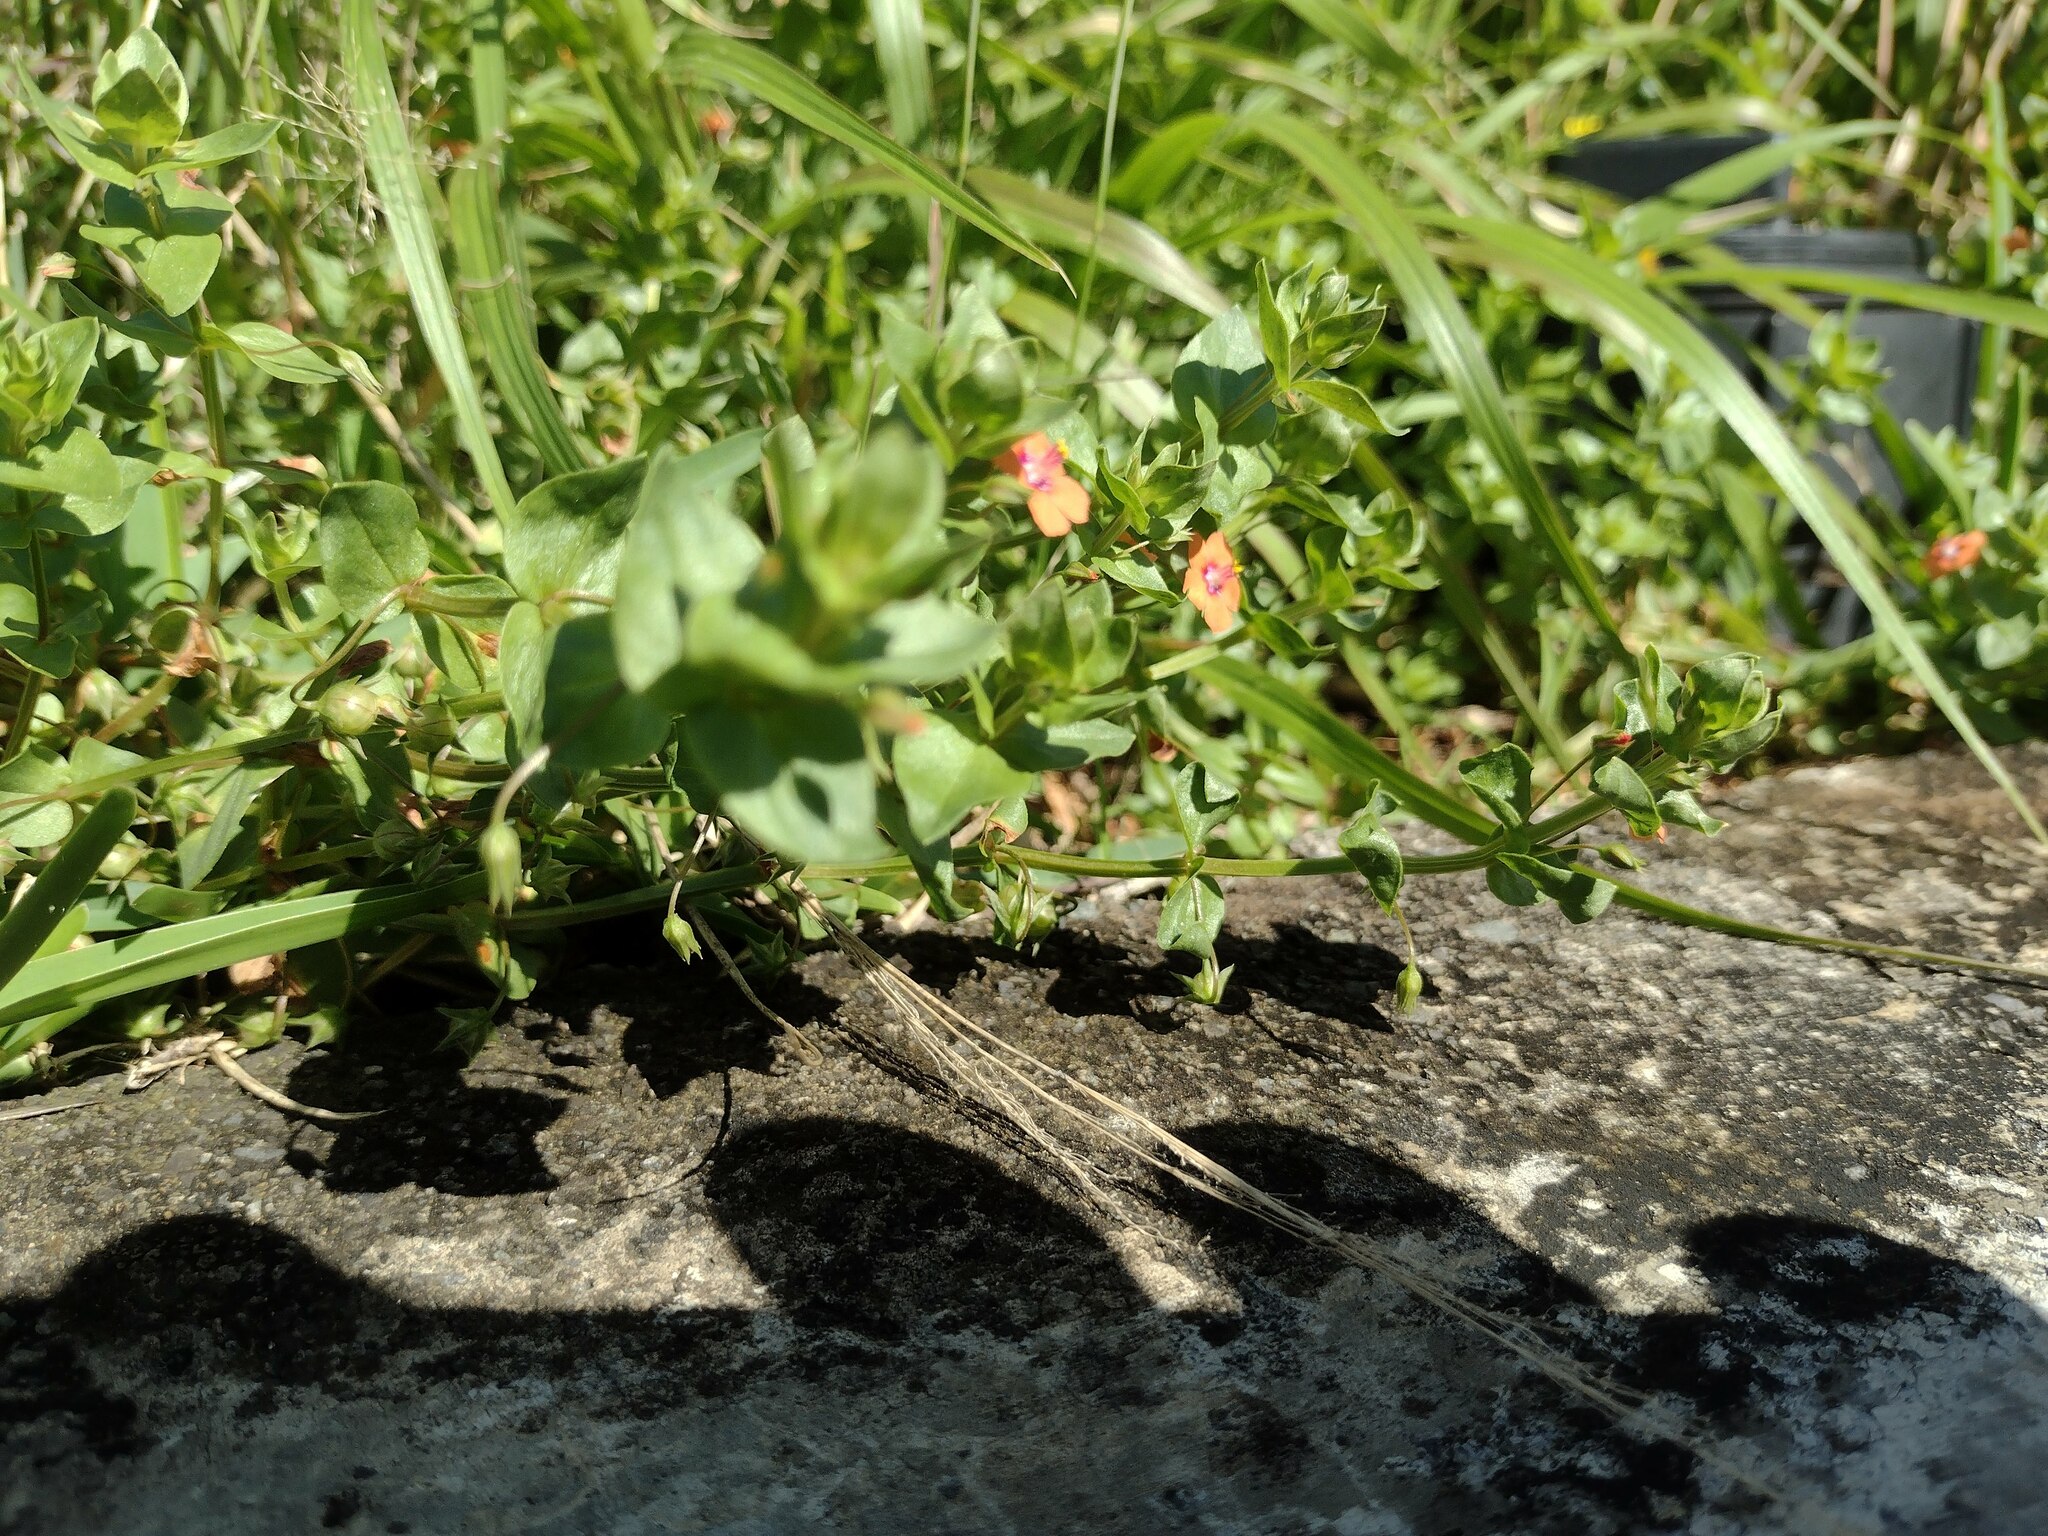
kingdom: Plantae
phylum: Tracheophyta
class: Magnoliopsida
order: Ericales
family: Primulaceae
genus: Lysimachia
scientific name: Lysimachia arvensis
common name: Scarlet pimpernel
